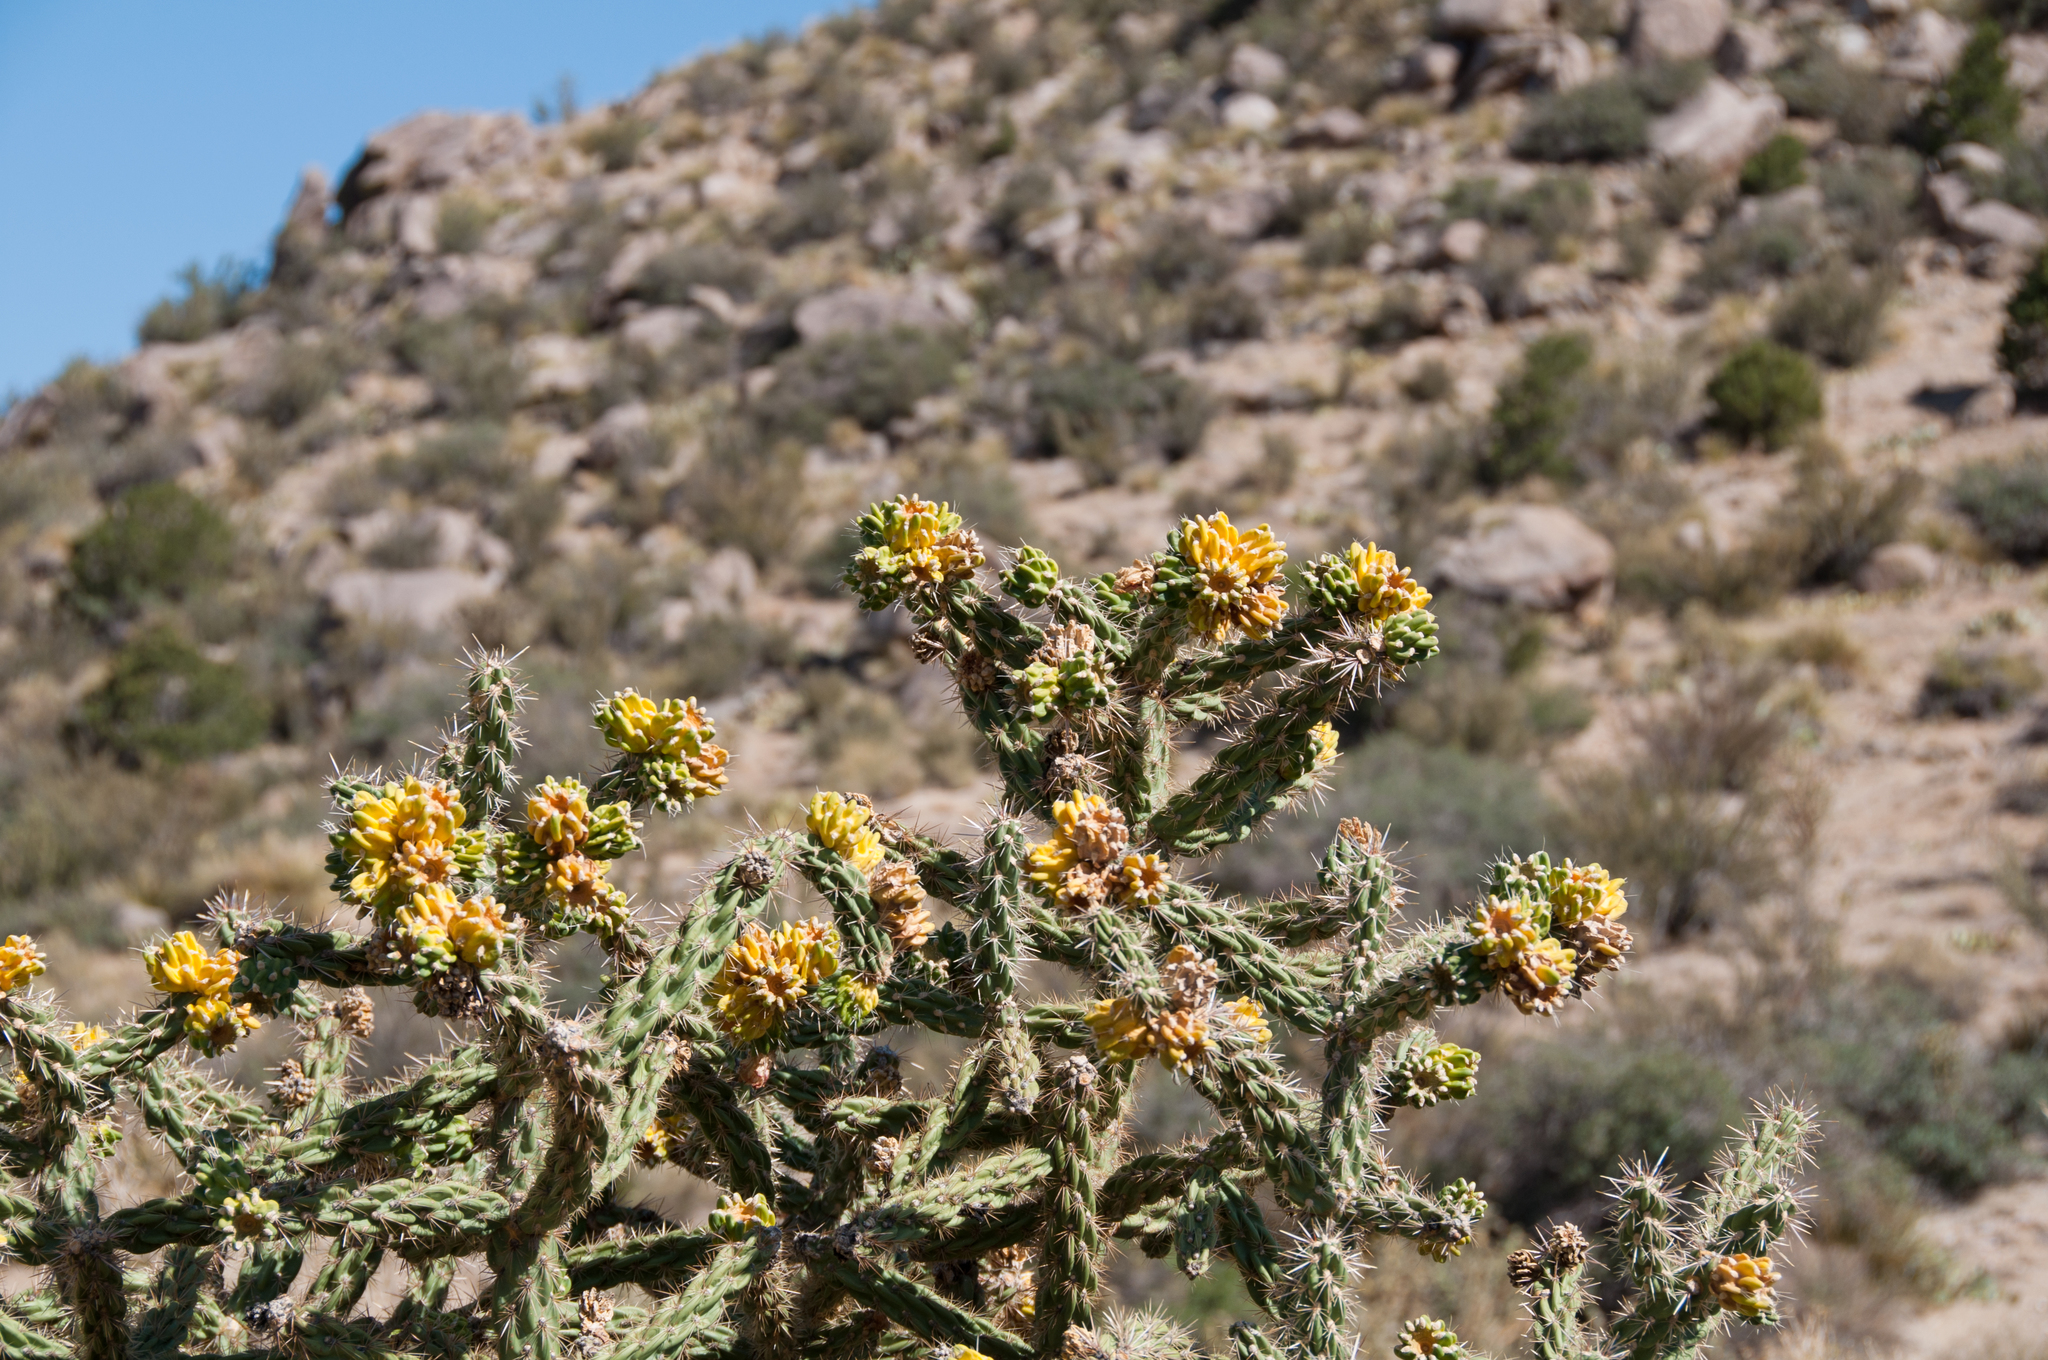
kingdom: Plantae
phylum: Tracheophyta
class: Magnoliopsida
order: Caryophyllales
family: Cactaceae
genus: Cylindropuntia
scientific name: Cylindropuntia imbricata
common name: Candelabrum cactus
